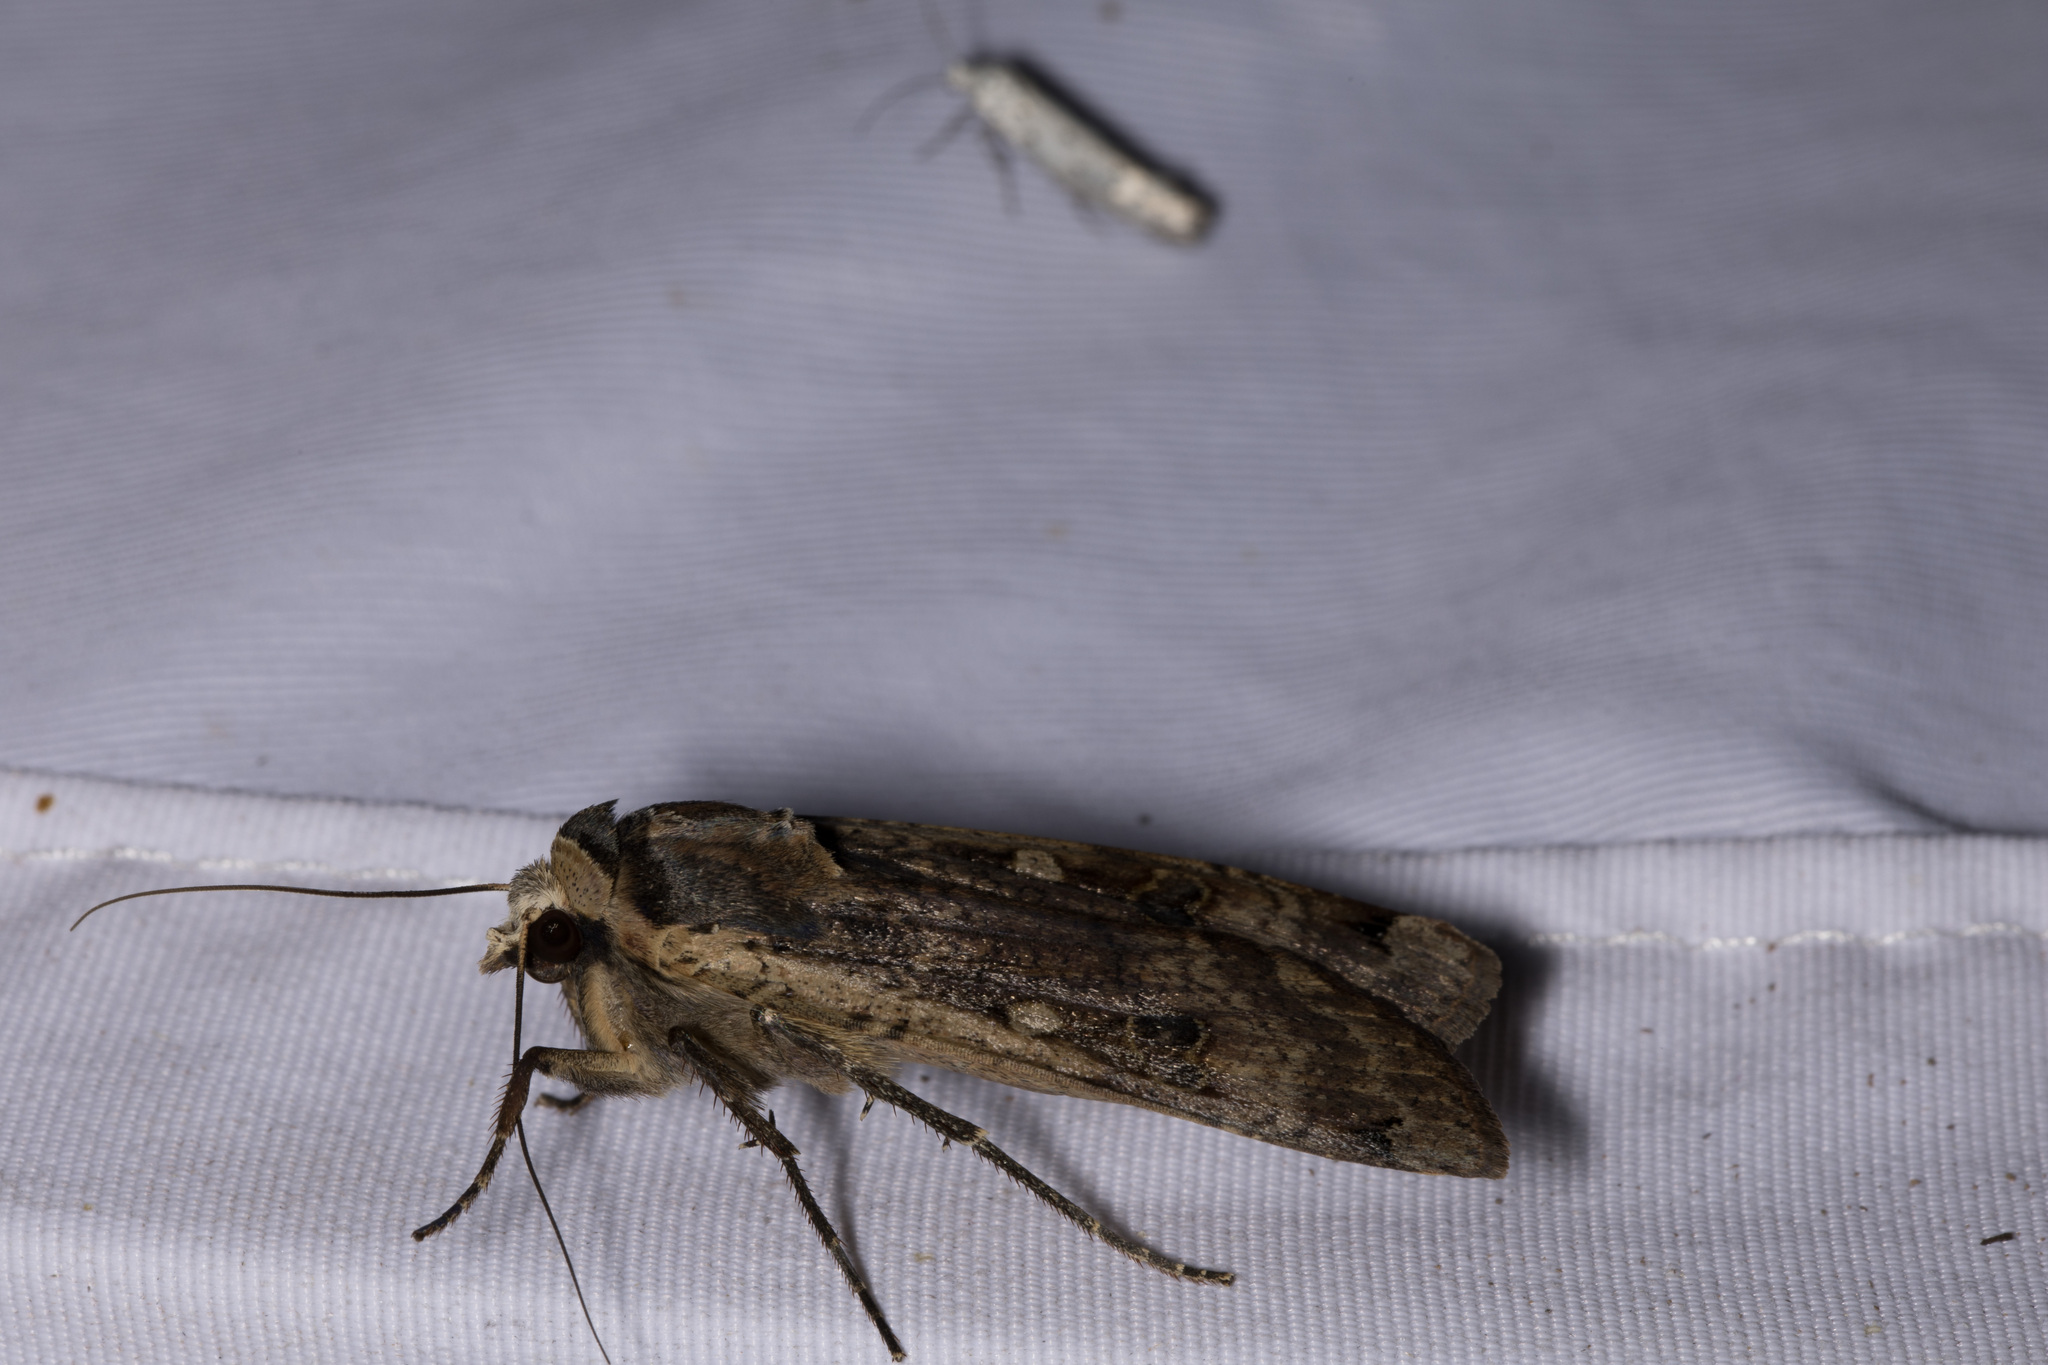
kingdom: Animalia
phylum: Arthropoda
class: Insecta
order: Lepidoptera
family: Noctuidae
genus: Noctua
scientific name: Noctua pronuba
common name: Large yellow underwing
